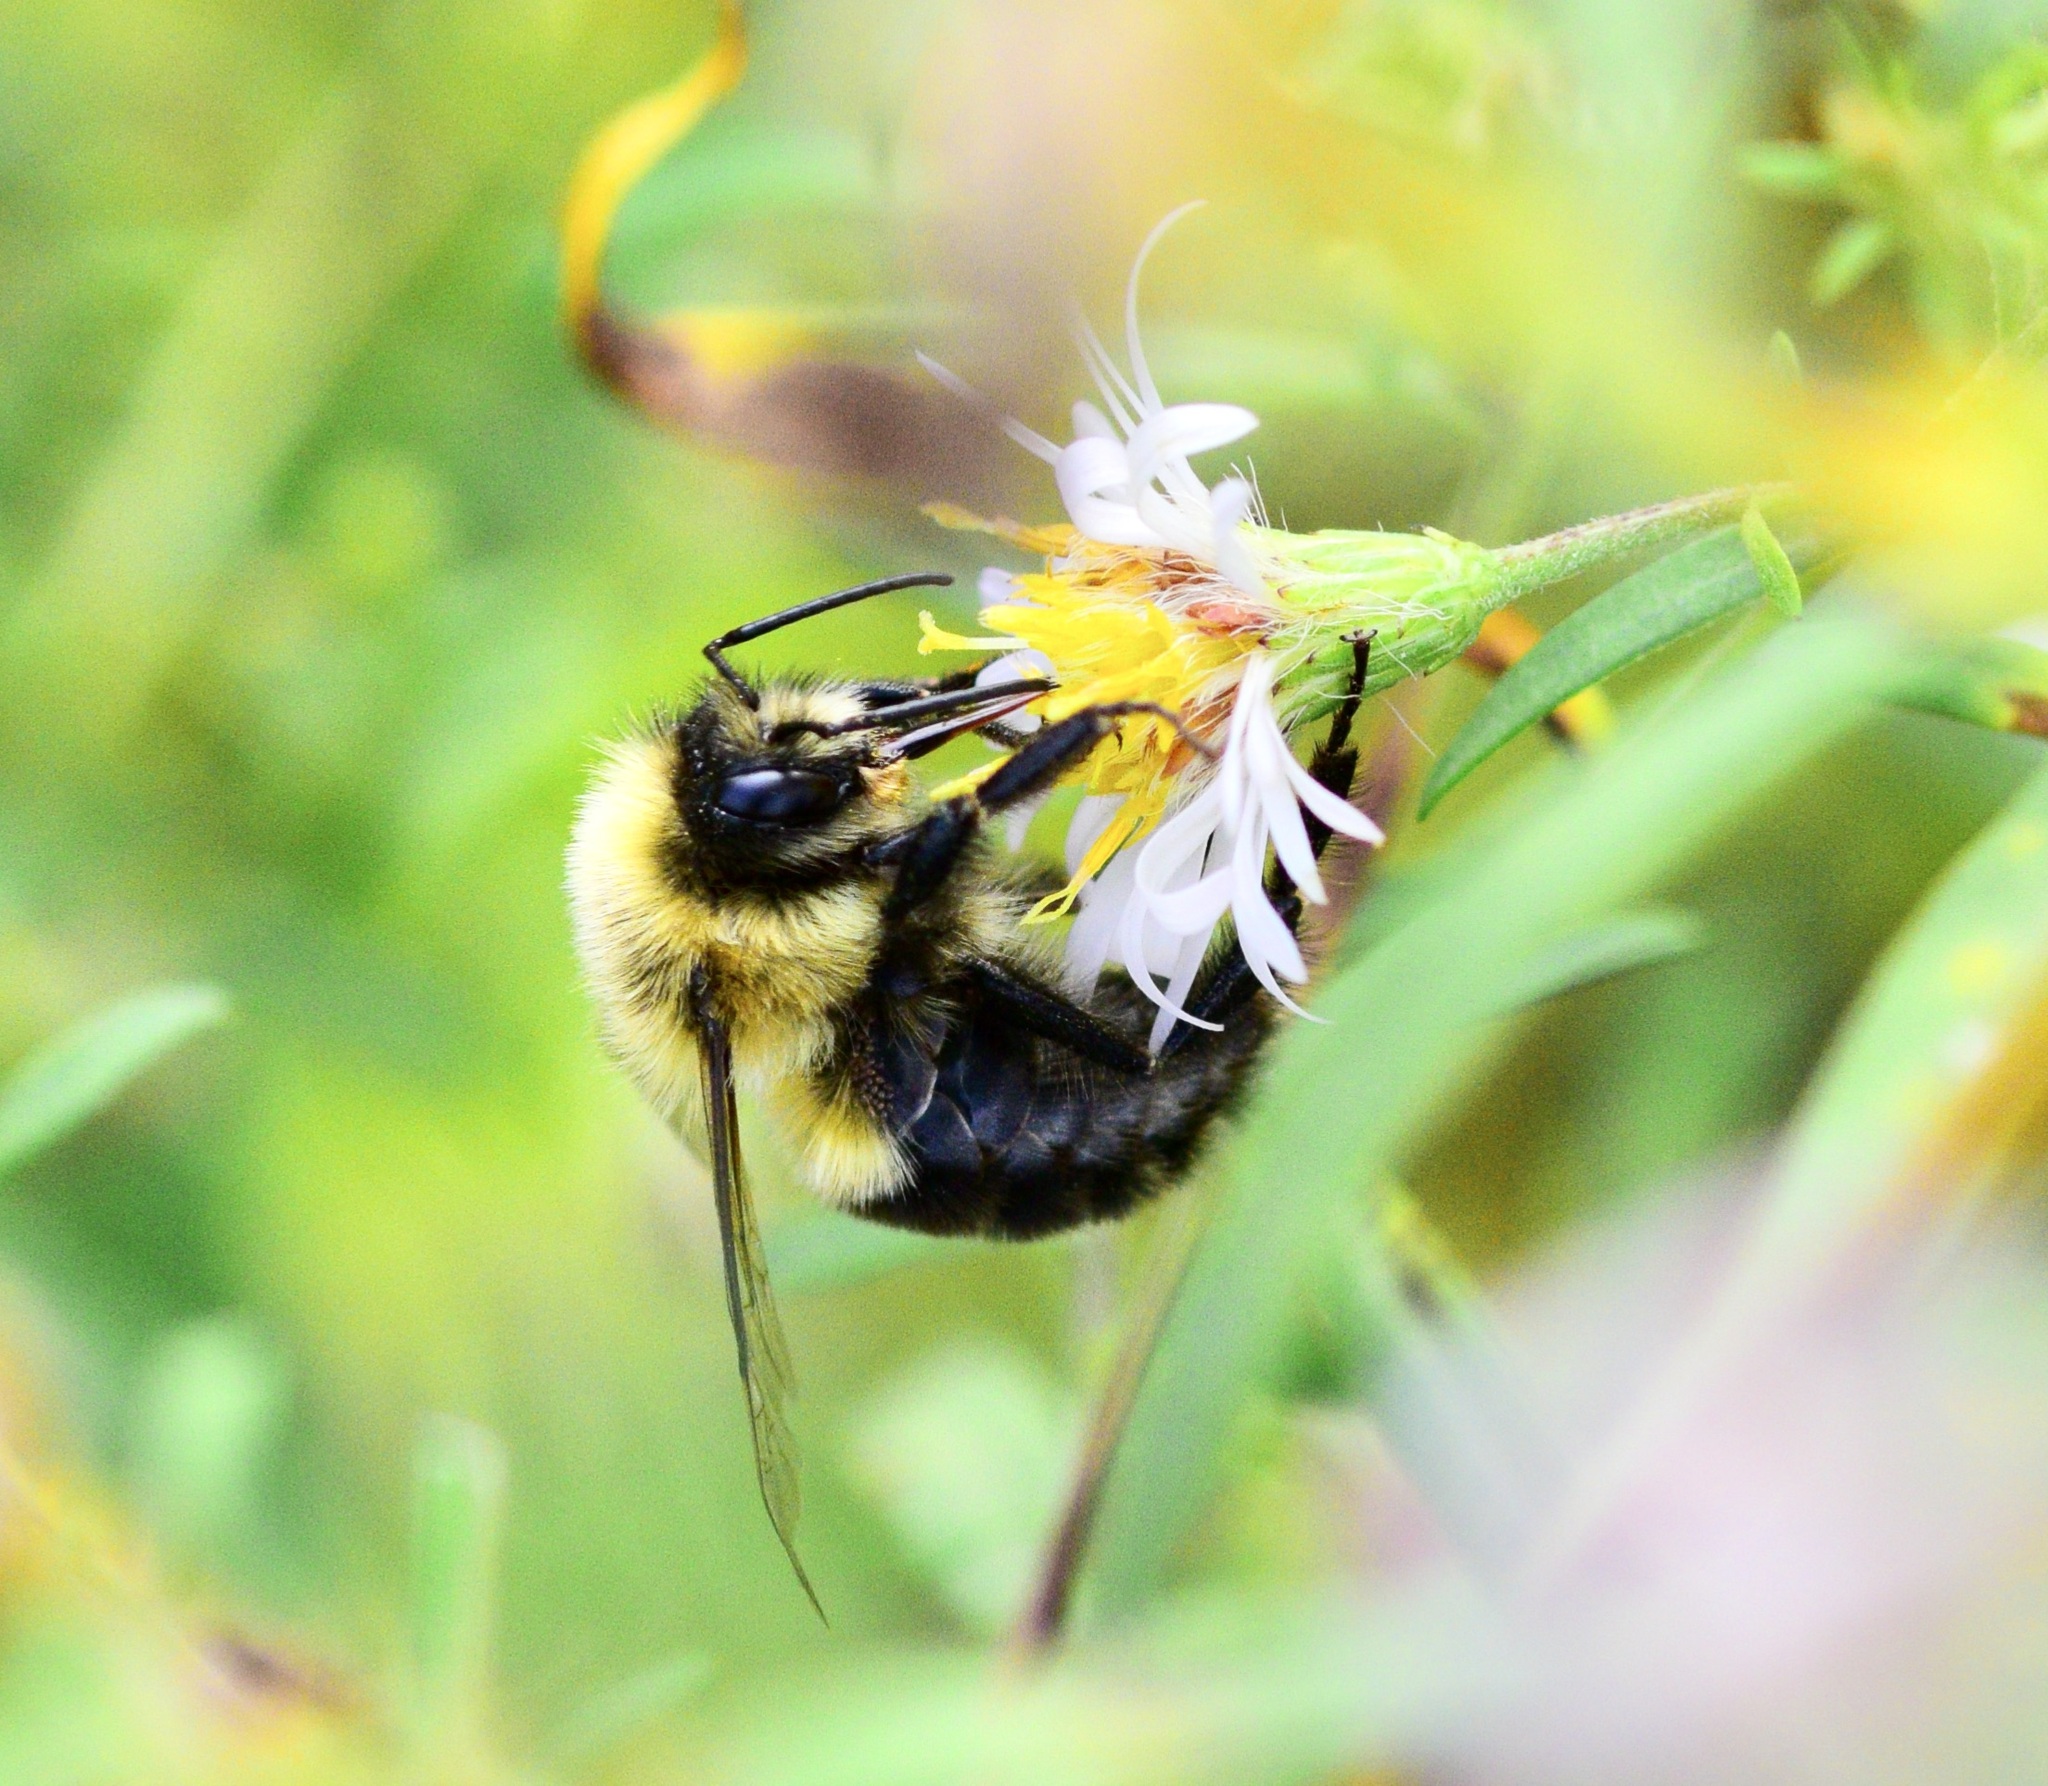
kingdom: Animalia
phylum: Arthropoda
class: Insecta
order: Hymenoptera
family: Apidae
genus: Bombus
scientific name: Bombus impatiens
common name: Common eastern bumble bee
